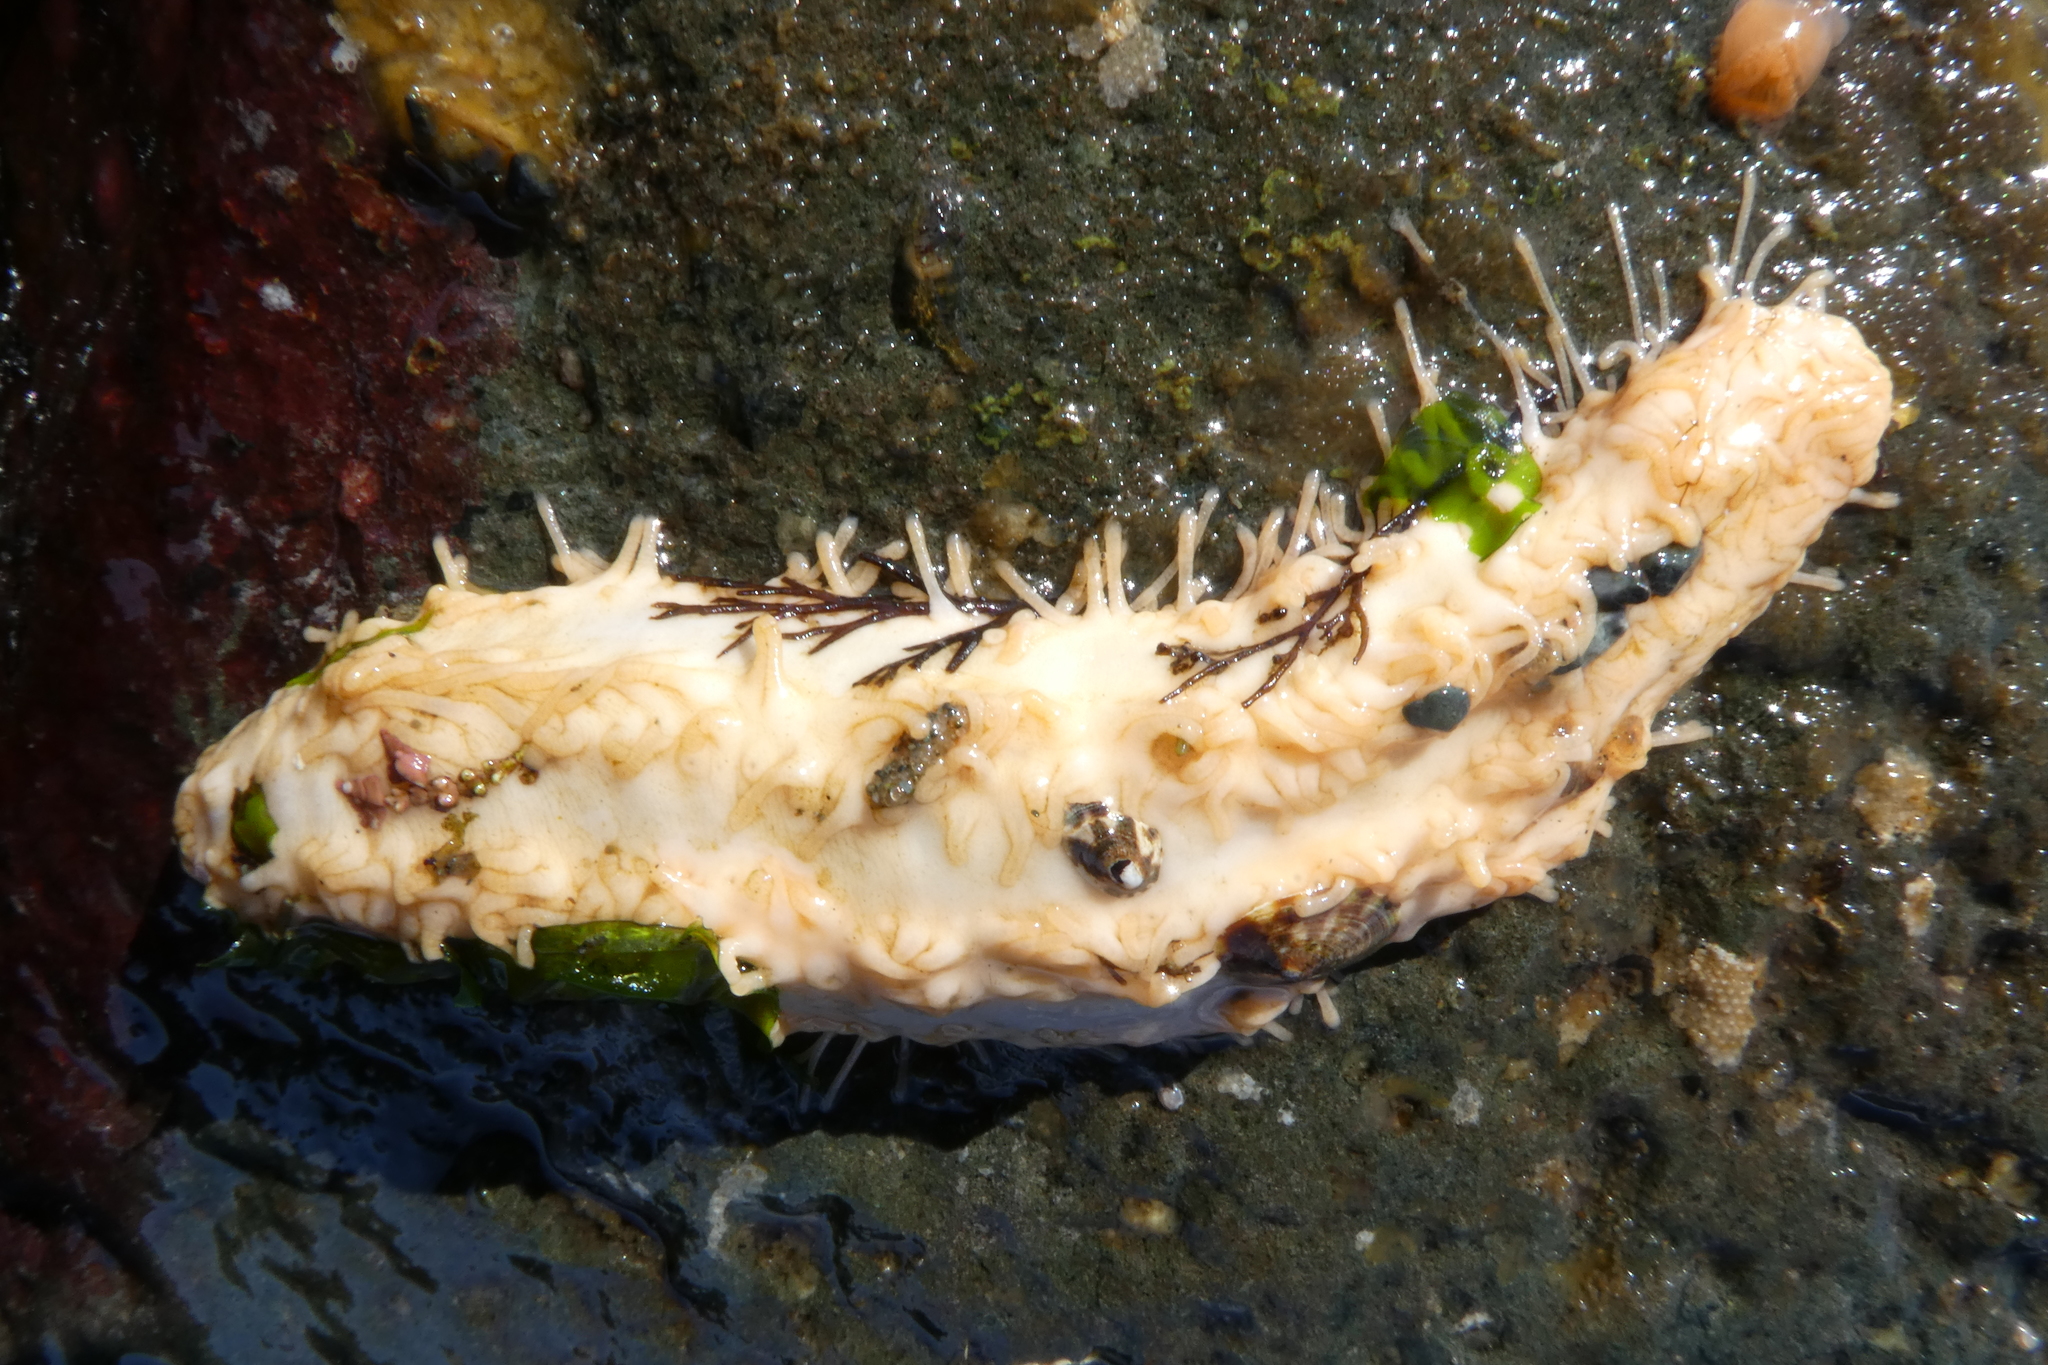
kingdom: Animalia
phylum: Echinodermata
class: Holothuroidea
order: Dendrochirotida
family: Sclerodactylidae
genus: Eupentacta
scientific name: Eupentacta quinquesemita
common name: Pentamerous sea cucumber
